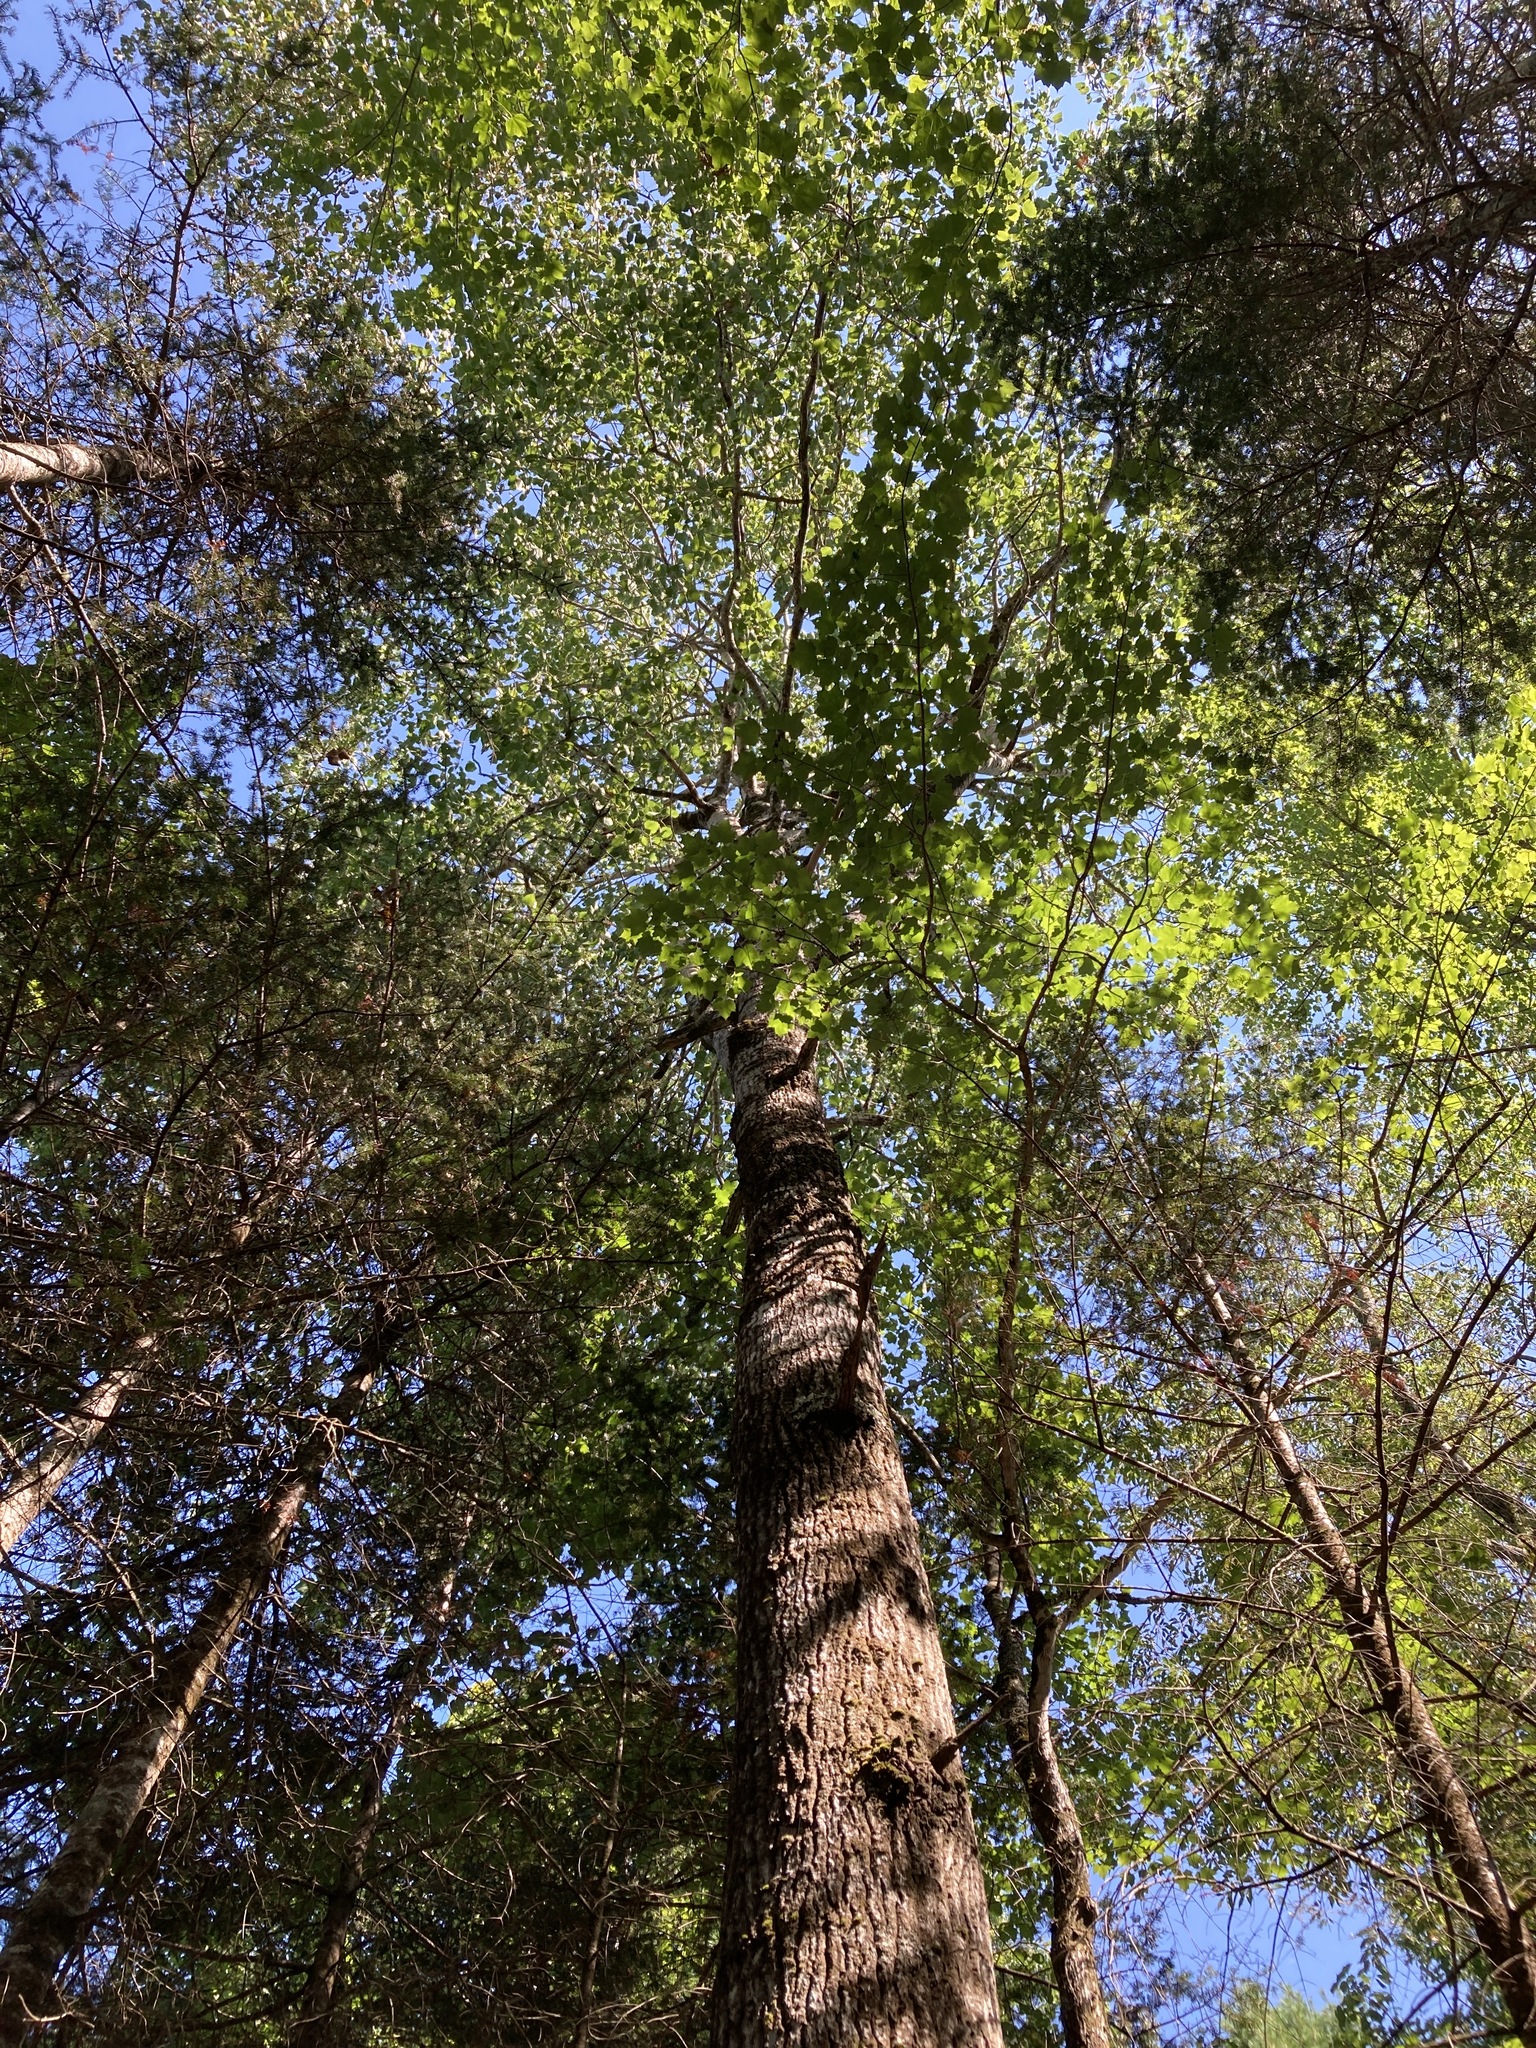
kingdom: Plantae
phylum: Tracheophyta
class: Magnoliopsida
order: Malpighiales
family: Salicaceae
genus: Populus
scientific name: Populus grandidentata
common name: Bigtooth aspen
